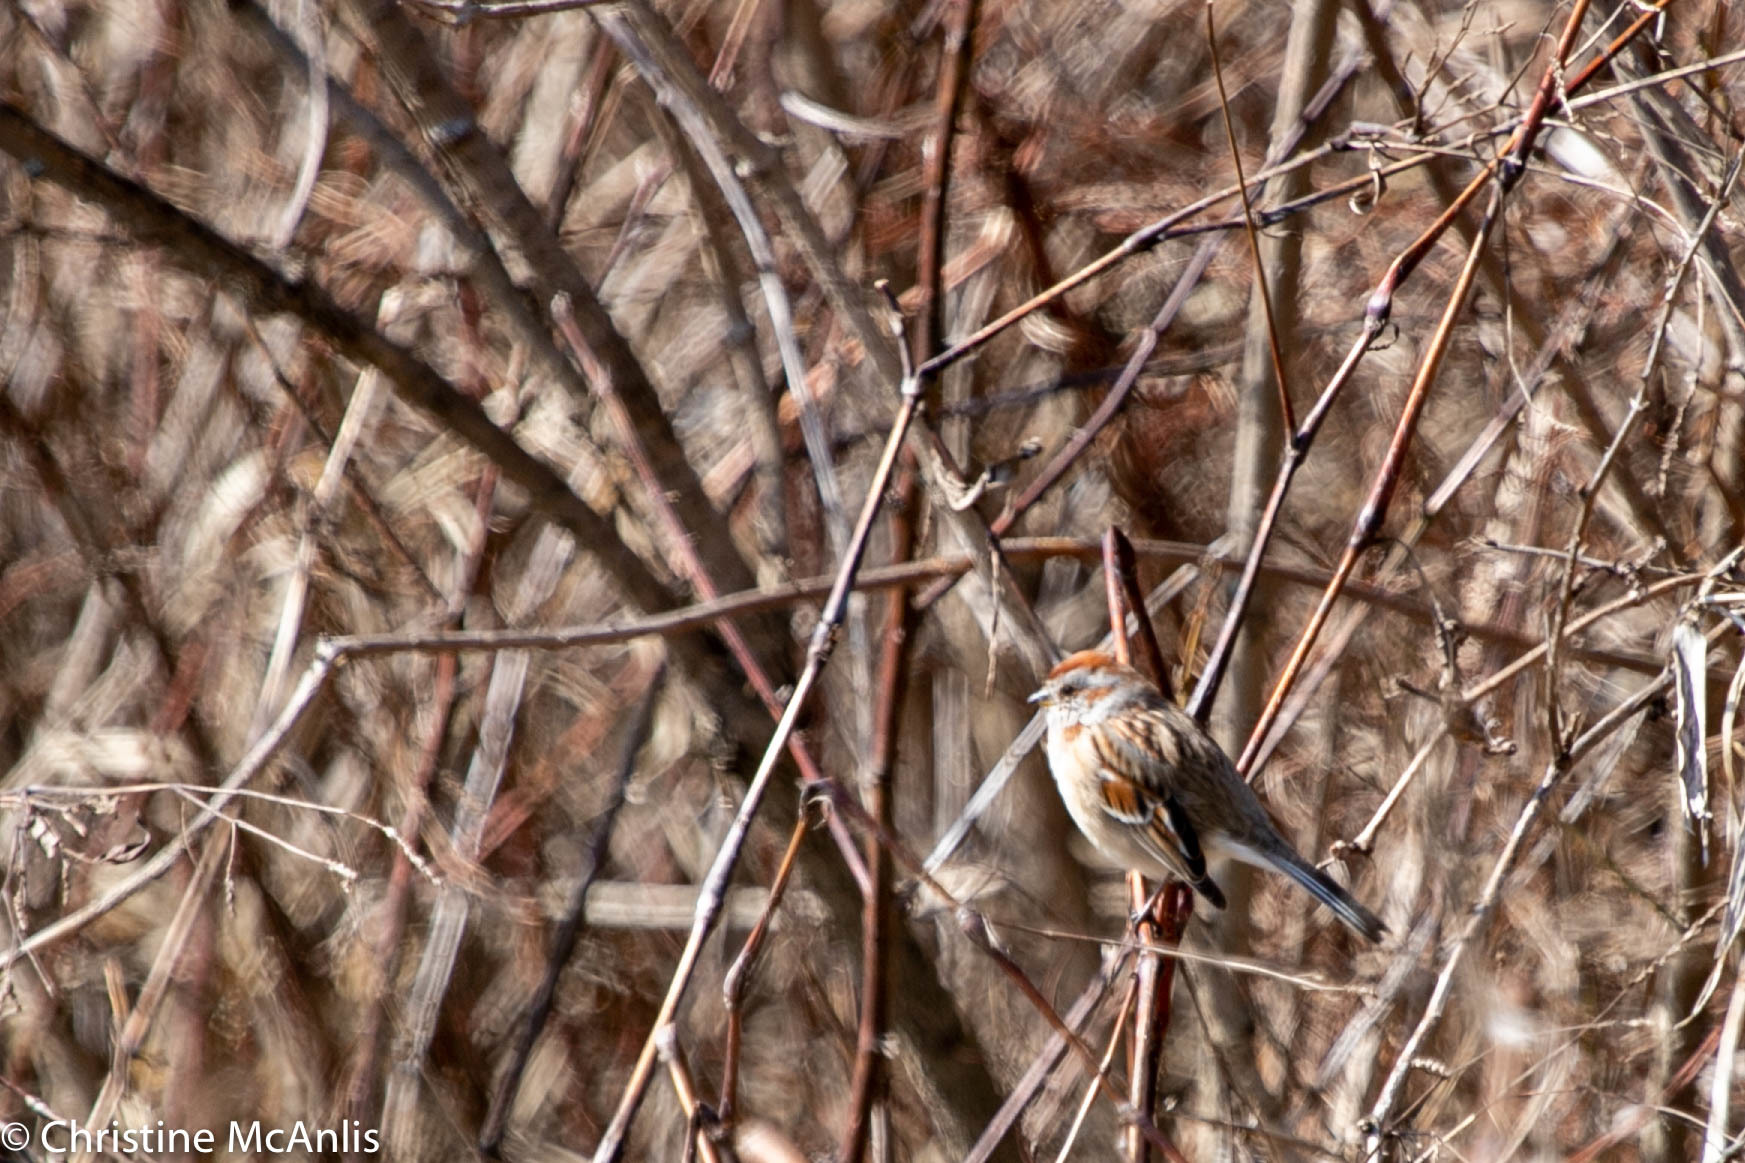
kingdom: Animalia
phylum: Chordata
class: Aves
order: Passeriformes
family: Passerellidae
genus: Spizelloides
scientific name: Spizelloides arborea
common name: American tree sparrow
